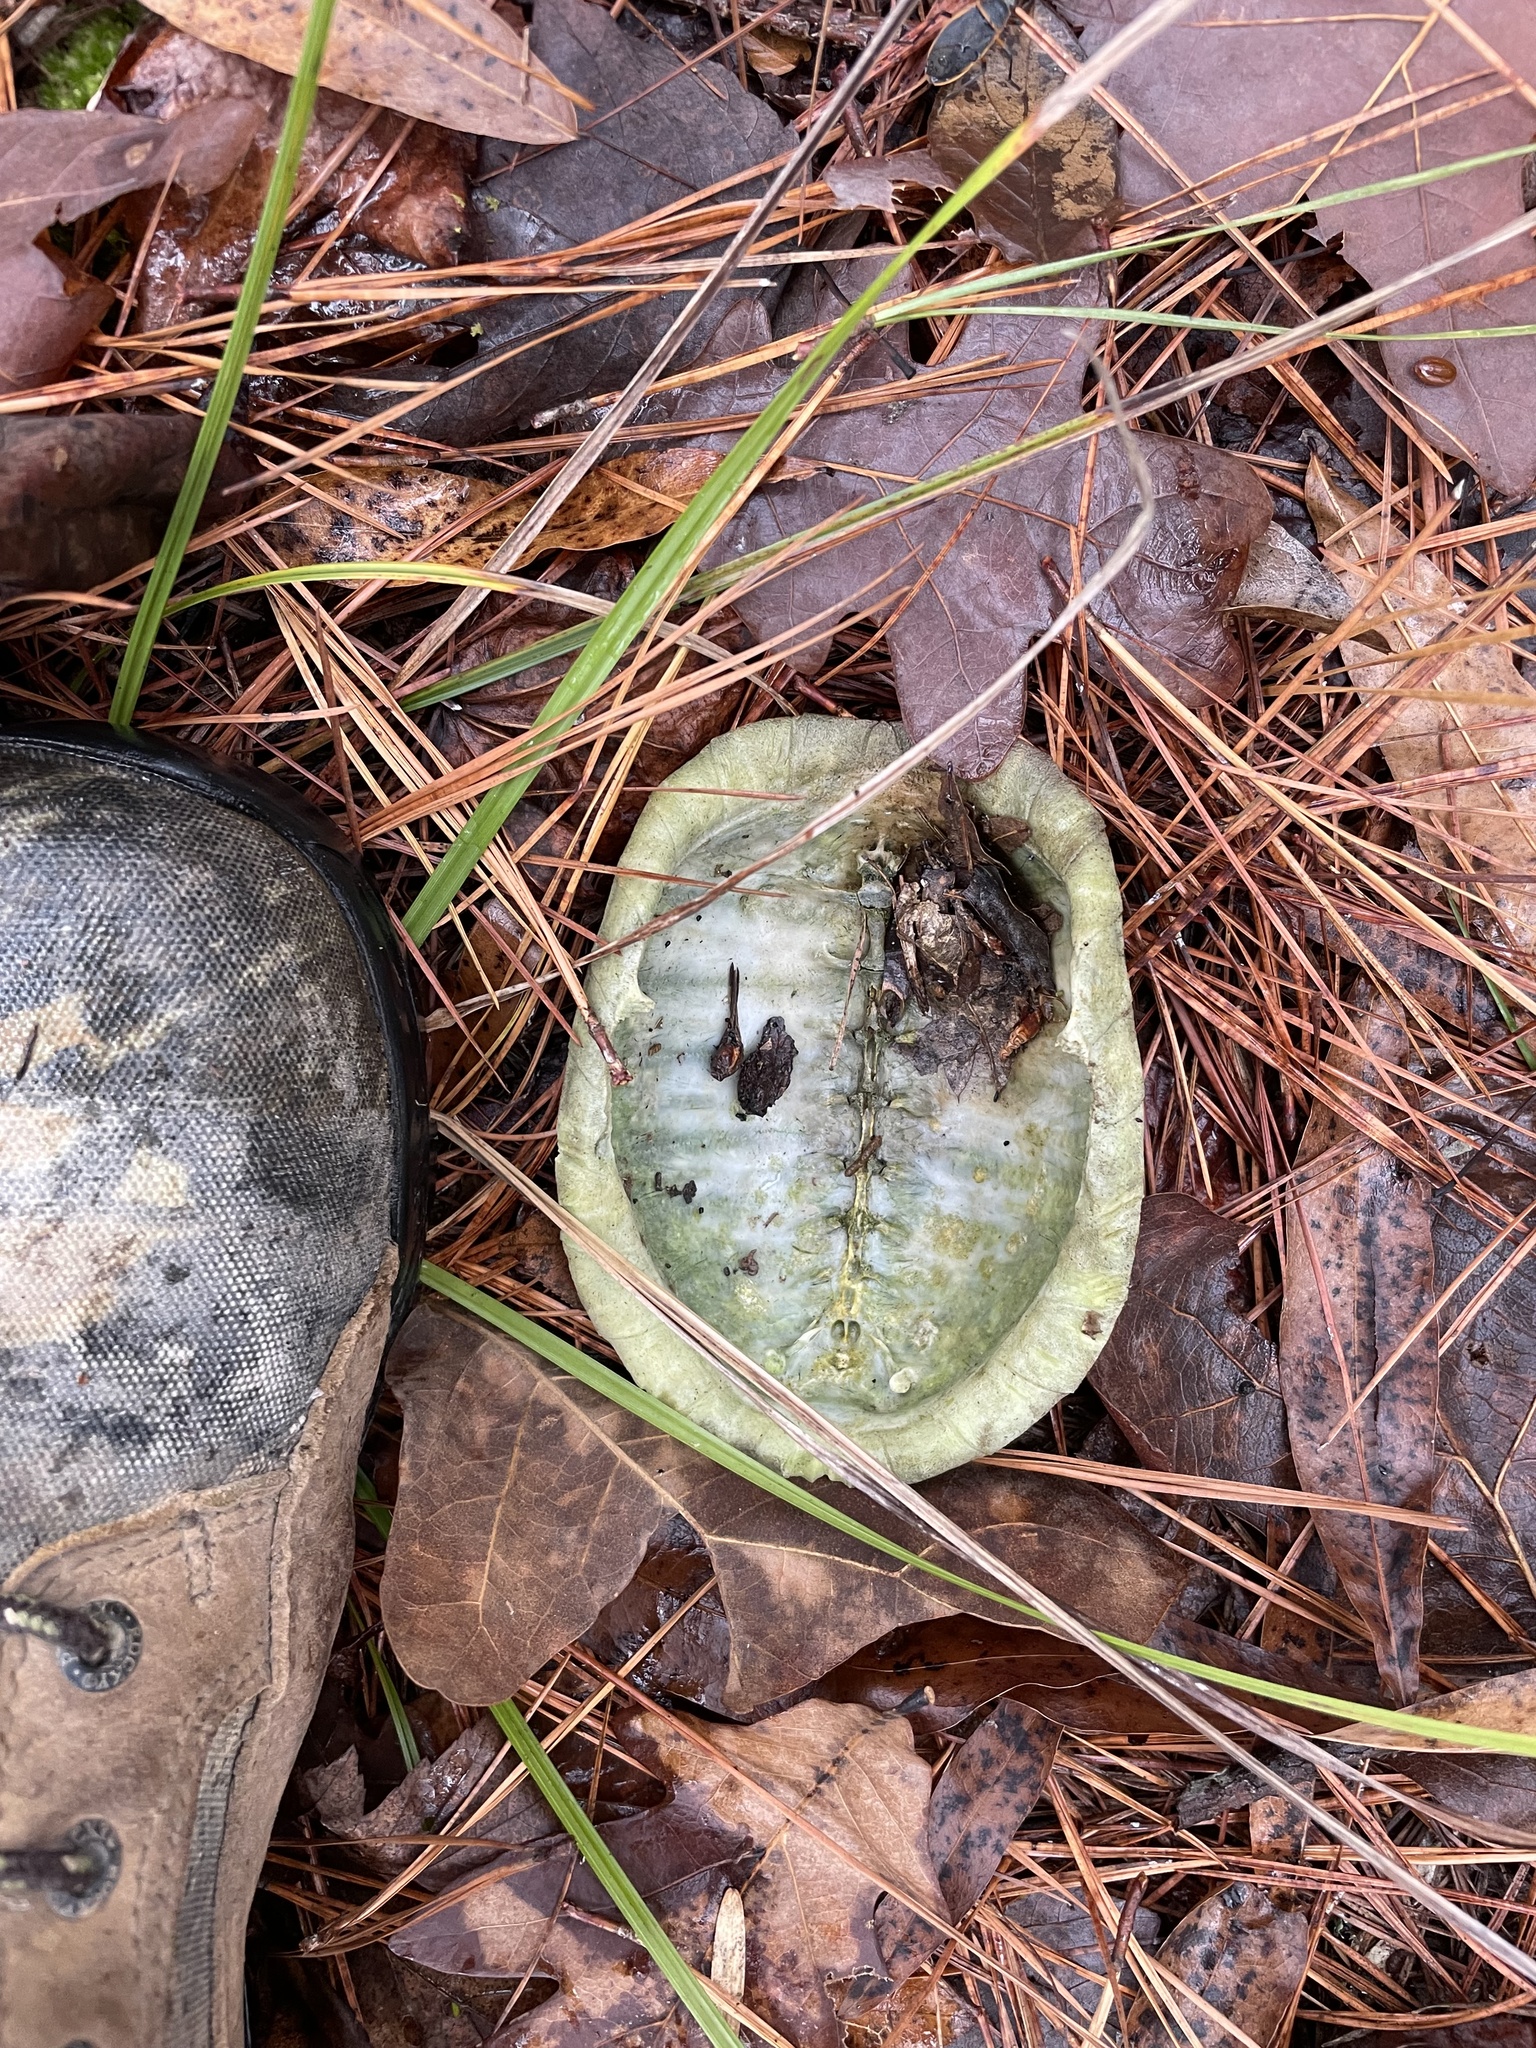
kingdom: Animalia
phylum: Chordata
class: Testudines
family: Emydidae
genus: Terrapene
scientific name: Terrapene carolina
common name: Common box turtle
